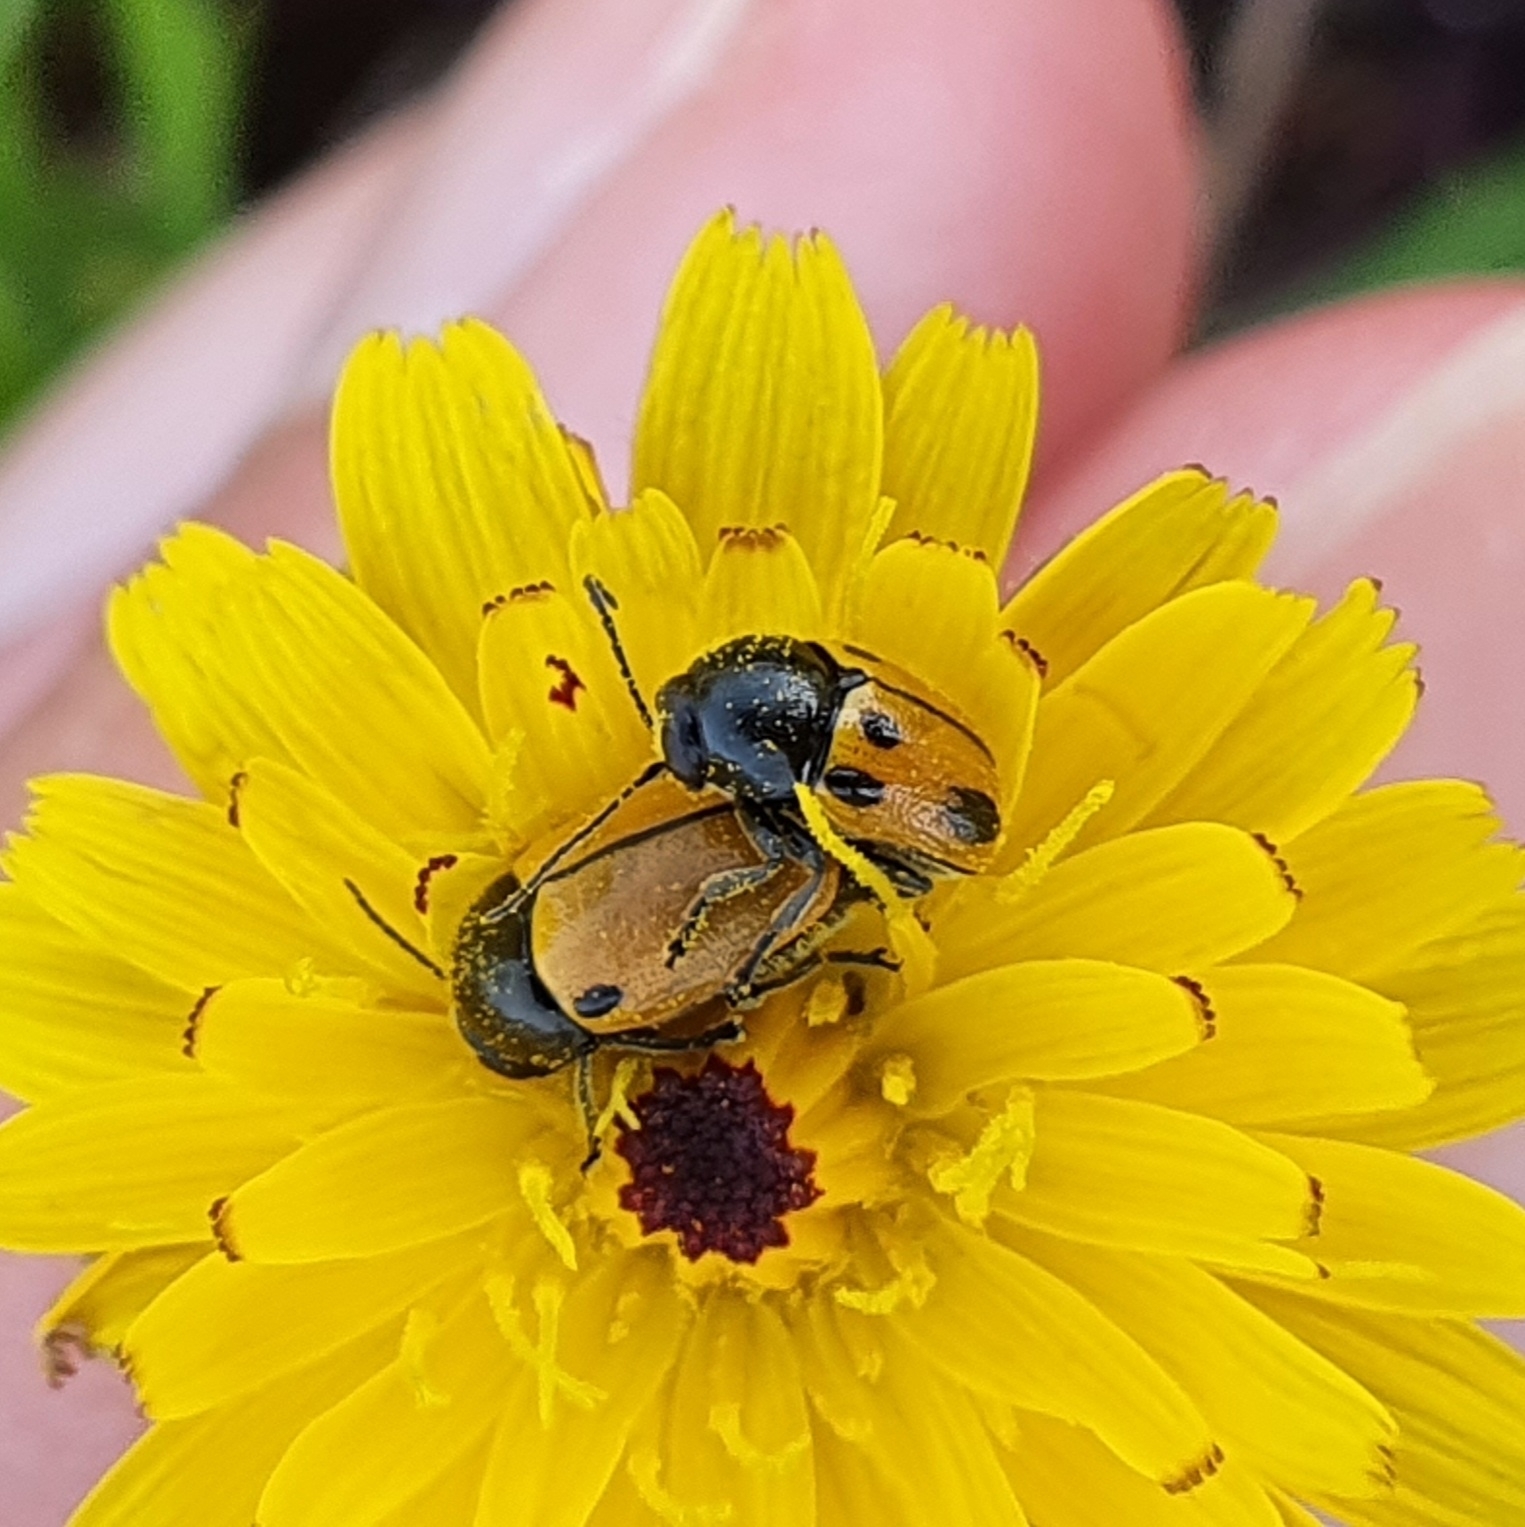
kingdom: Animalia
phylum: Arthropoda
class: Insecta
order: Coleoptera
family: Chrysomelidae
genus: Cryptocephalus
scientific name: Cryptocephalus rugicollis
